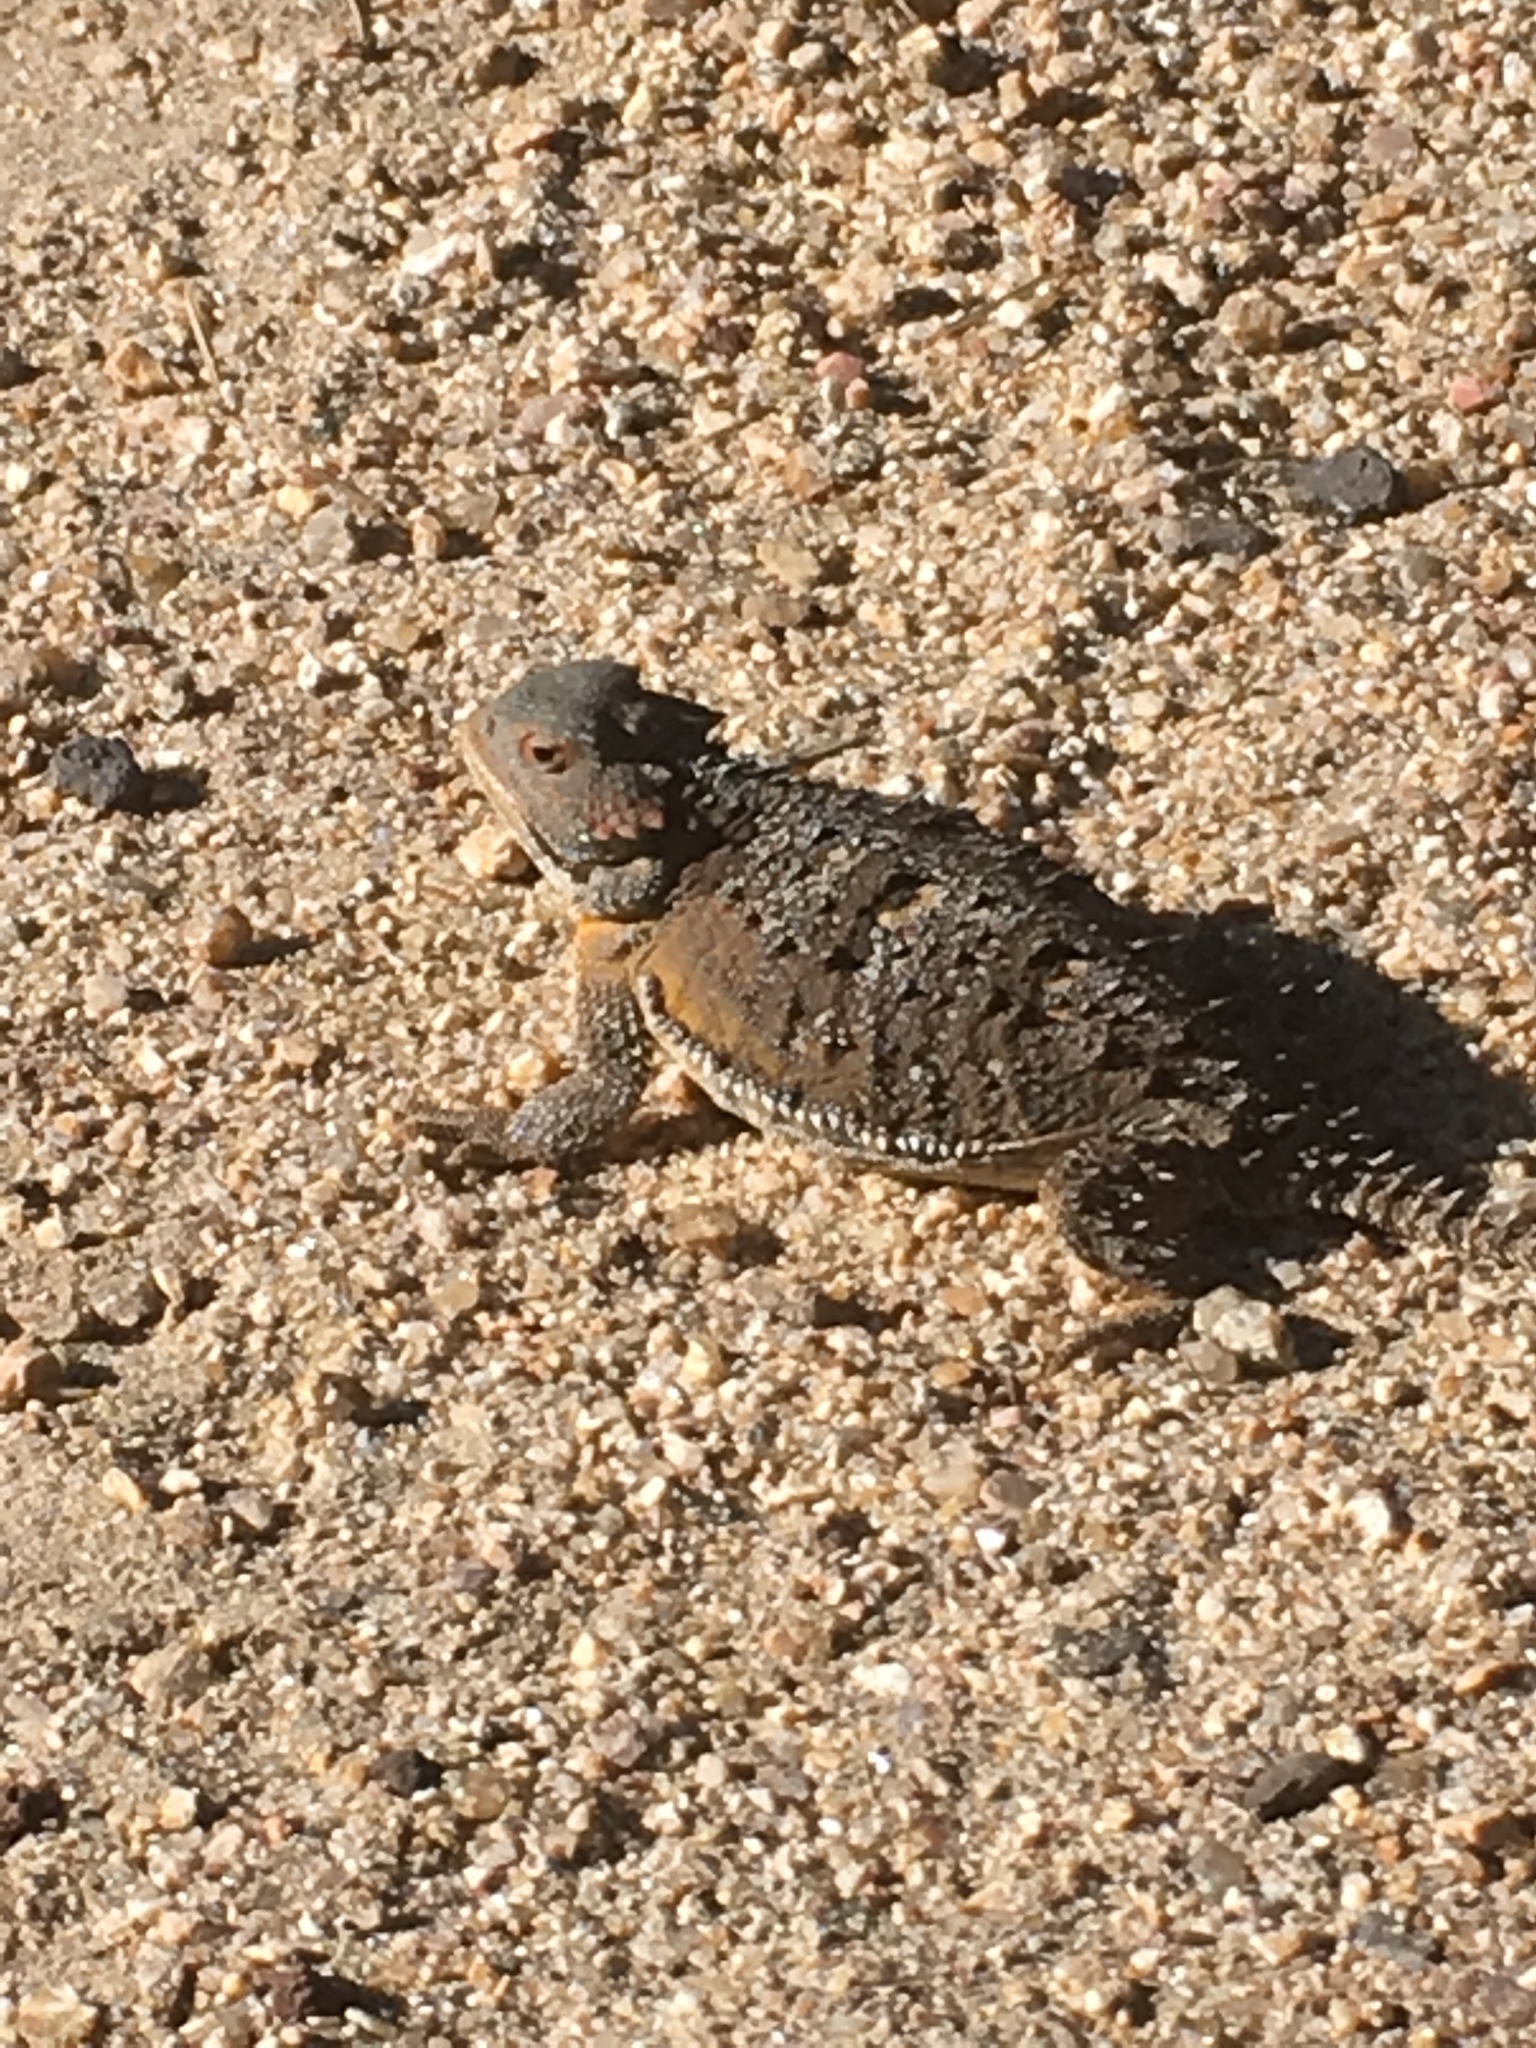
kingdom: Animalia
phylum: Chordata
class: Squamata
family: Phrynosomatidae
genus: Phrynosoma
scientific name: Phrynosoma hernandesi
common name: Greater short-horned lizard
